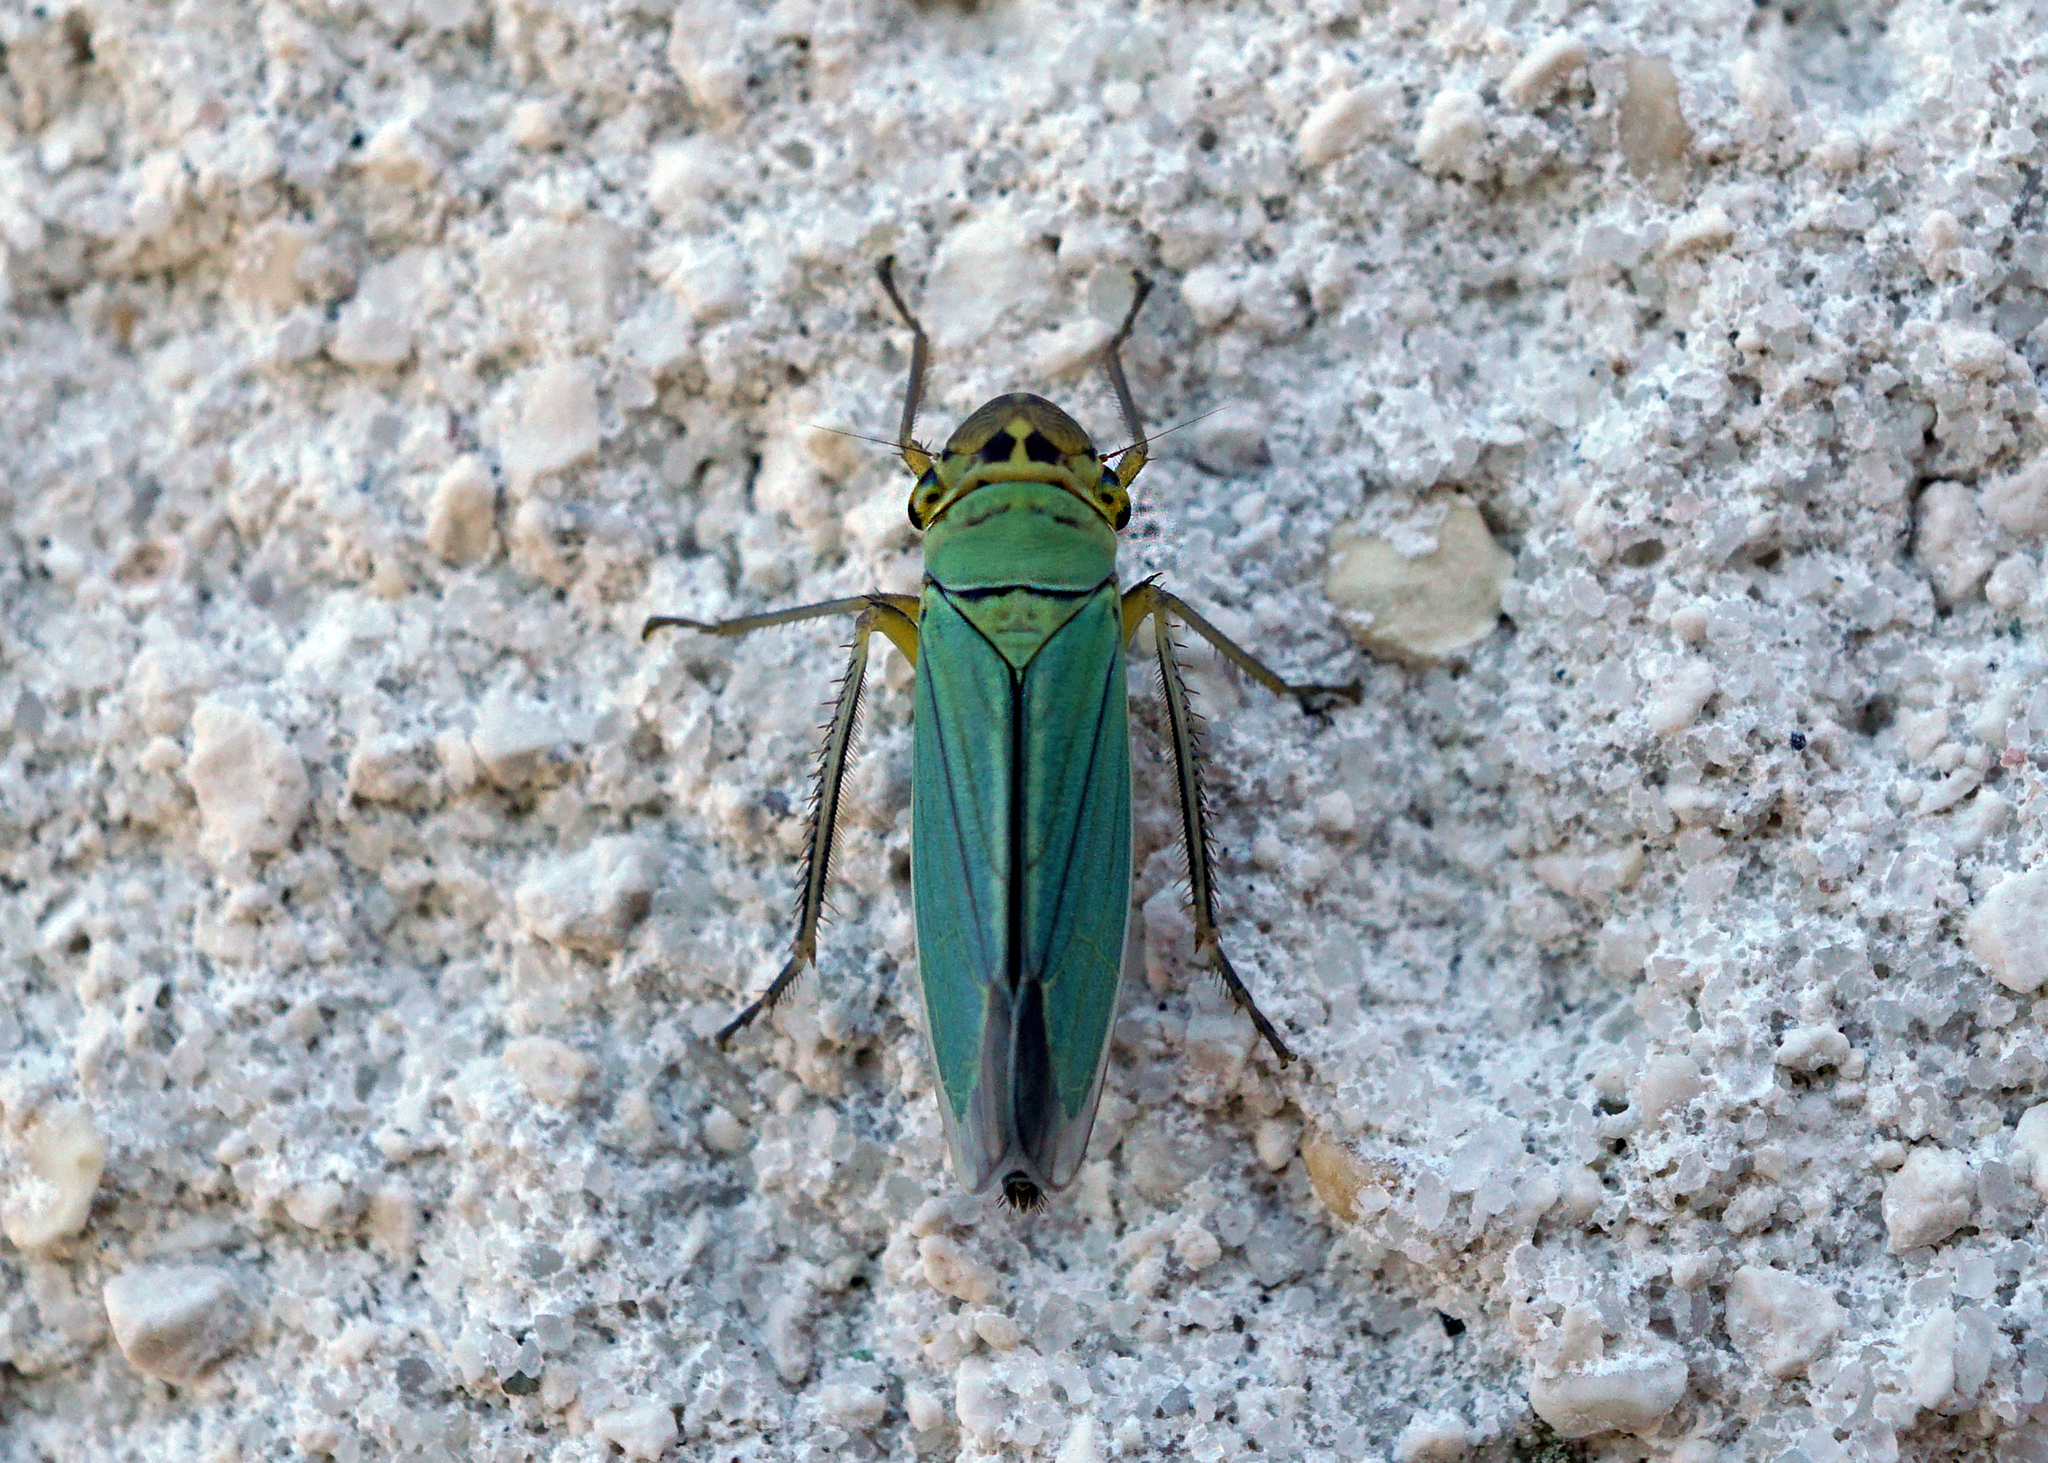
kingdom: Animalia
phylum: Arthropoda
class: Insecta
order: Hemiptera
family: Cicadellidae
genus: Cicadella
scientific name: Cicadella viridis
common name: Leafhopper
